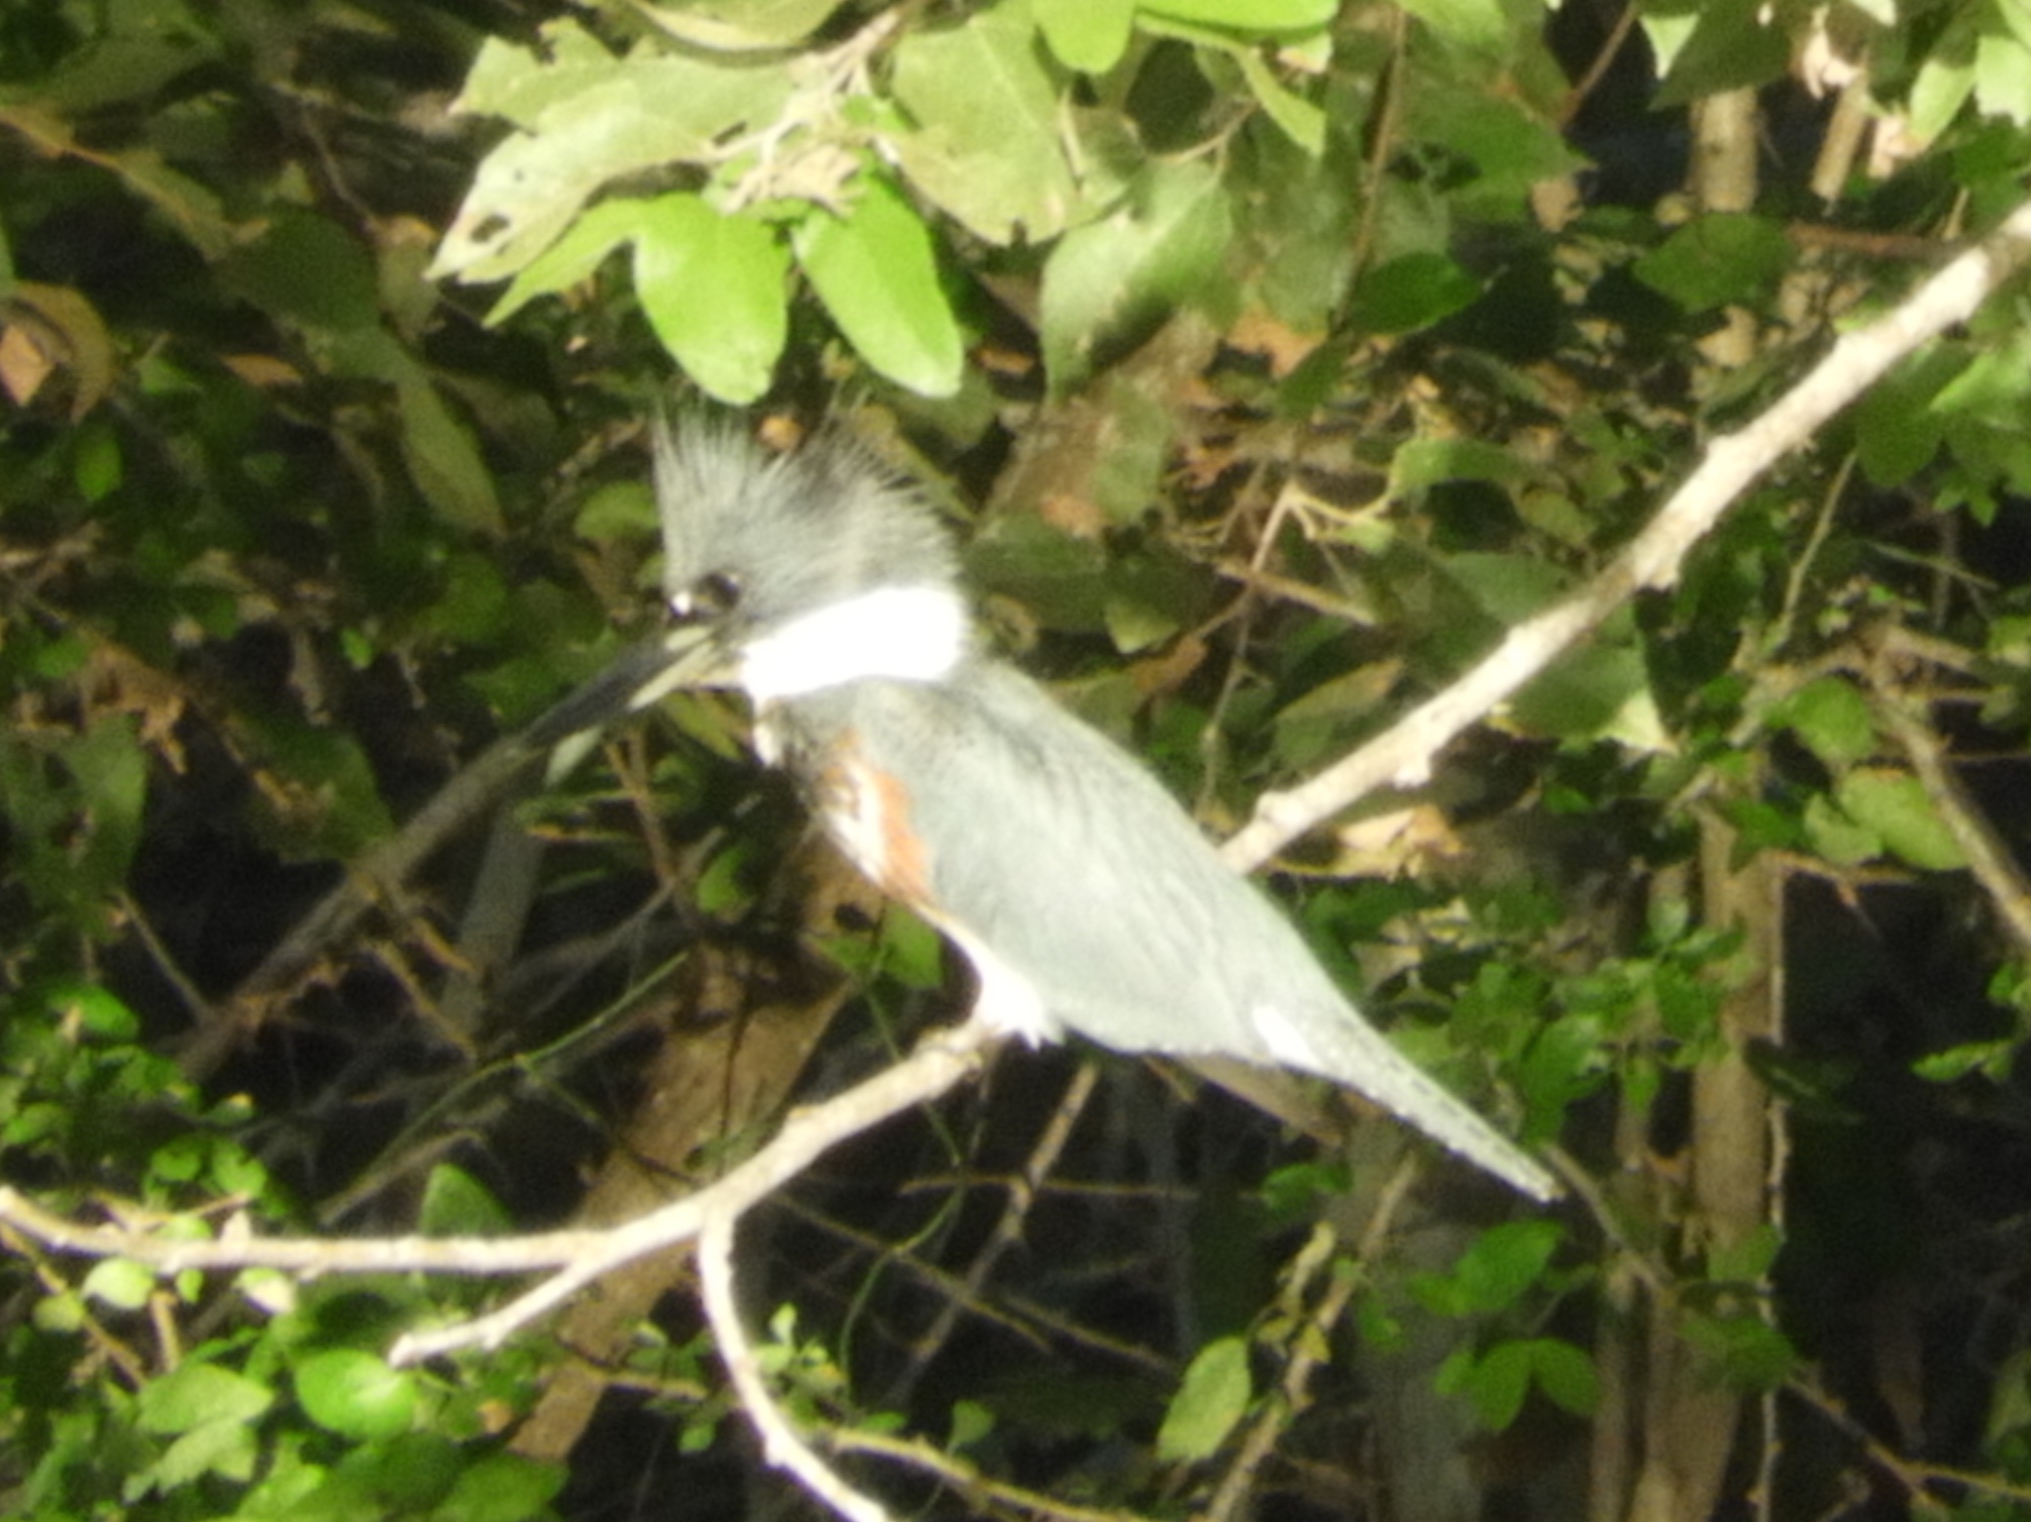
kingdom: Animalia
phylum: Chordata
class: Aves
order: Coraciiformes
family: Alcedinidae
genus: Megaceryle
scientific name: Megaceryle alcyon
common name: Belted kingfisher
